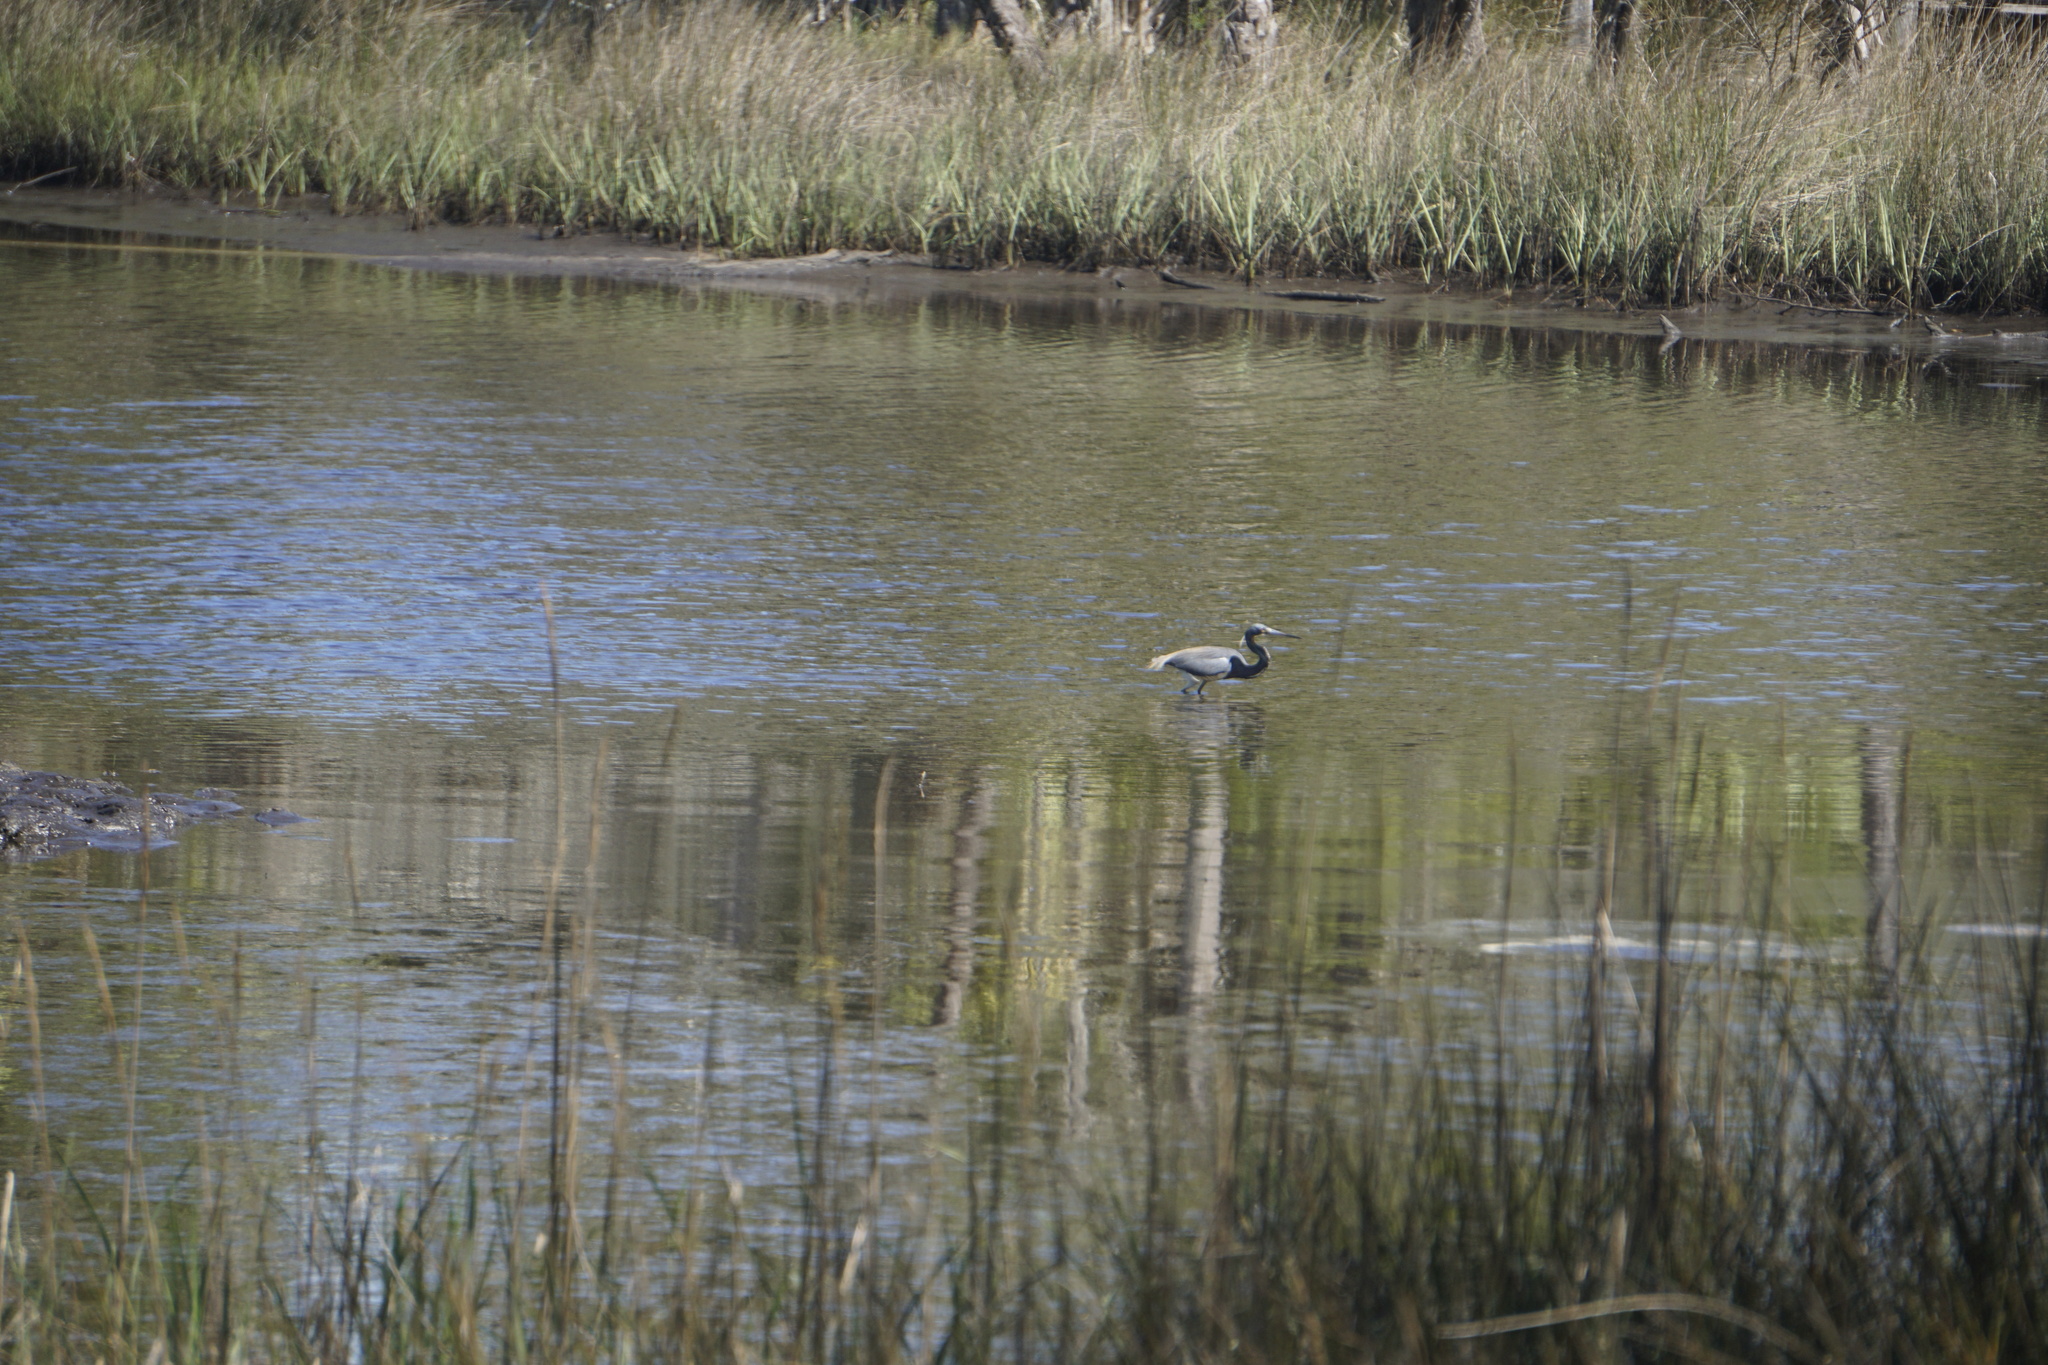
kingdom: Animalia
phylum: Chordata
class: Aves
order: Pelecaniformes
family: Ardeidae
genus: Egretta
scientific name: Egretta tricolor
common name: Tricolored heron
